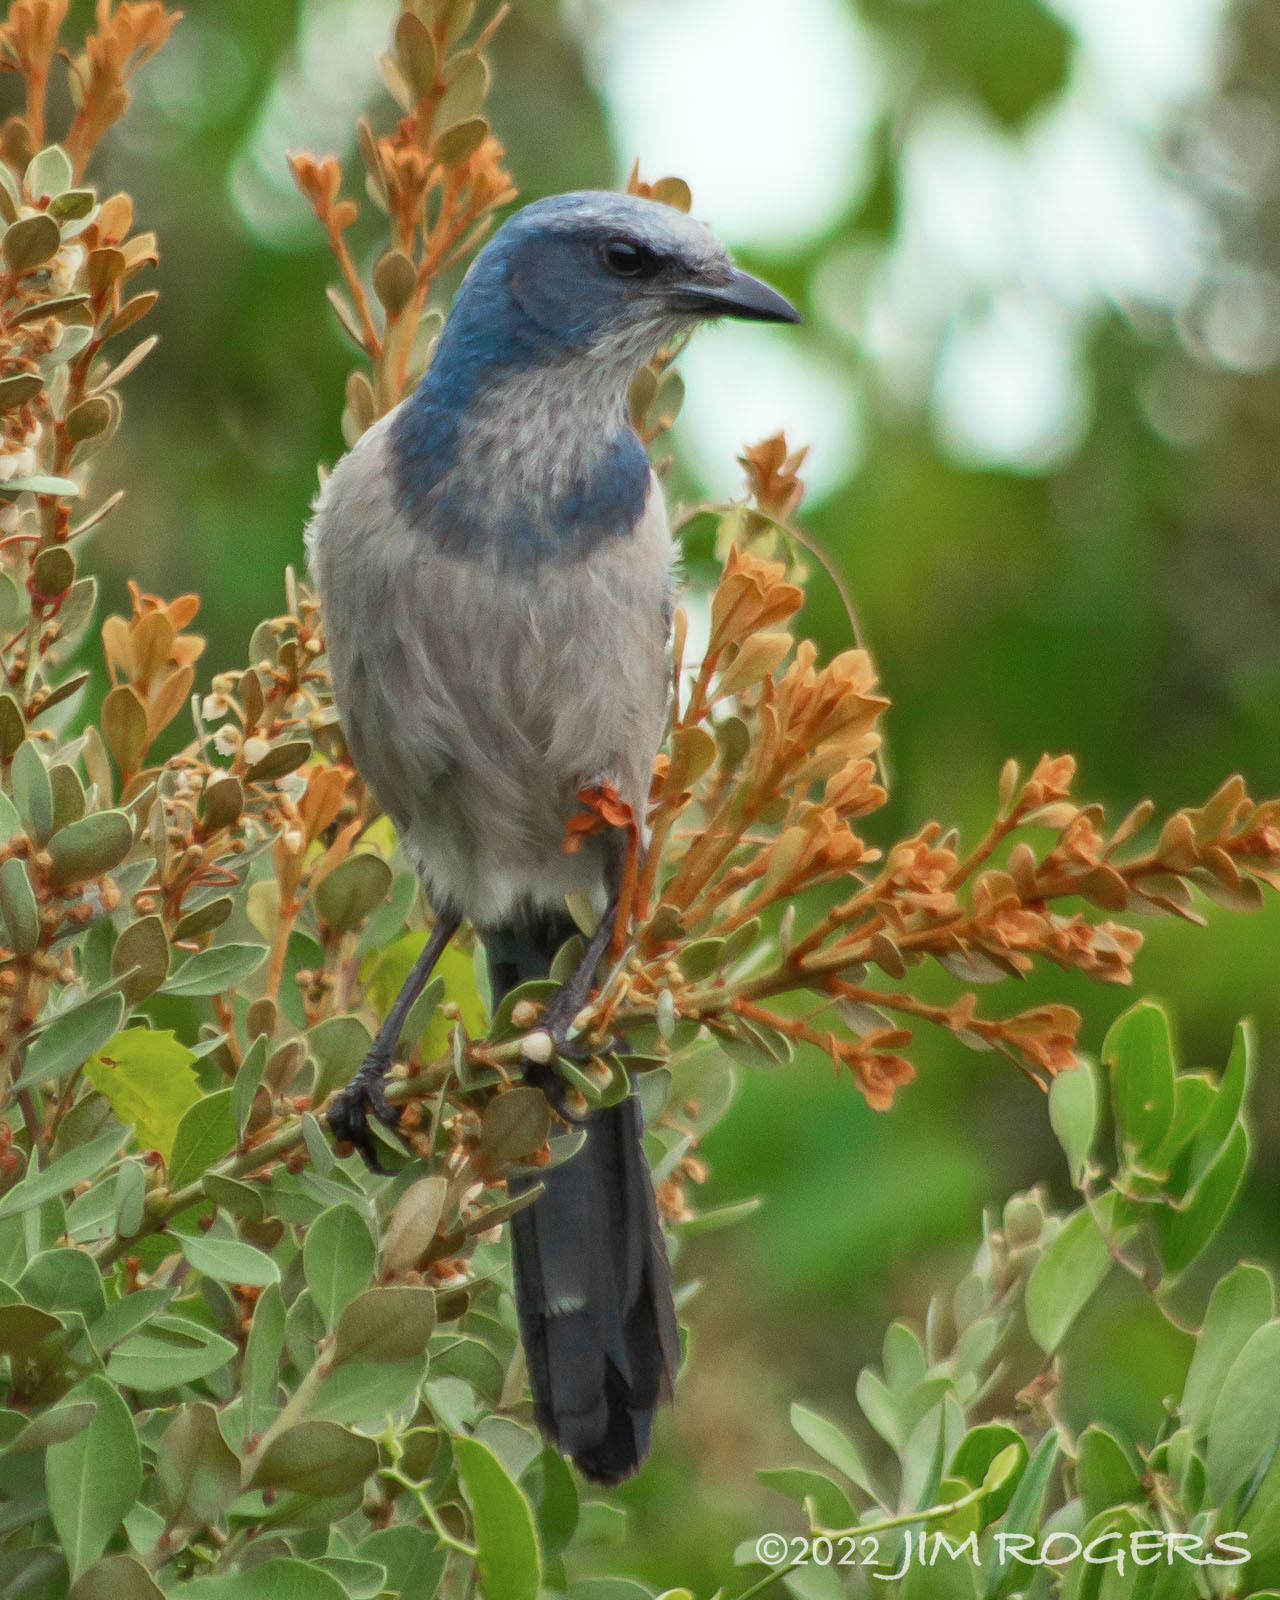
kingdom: Animalia
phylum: Chordata
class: Aves
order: Passeriformes
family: Corvidae
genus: Aphelocoma
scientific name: Aphelocoma coerulescens
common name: Florida scrub jay
